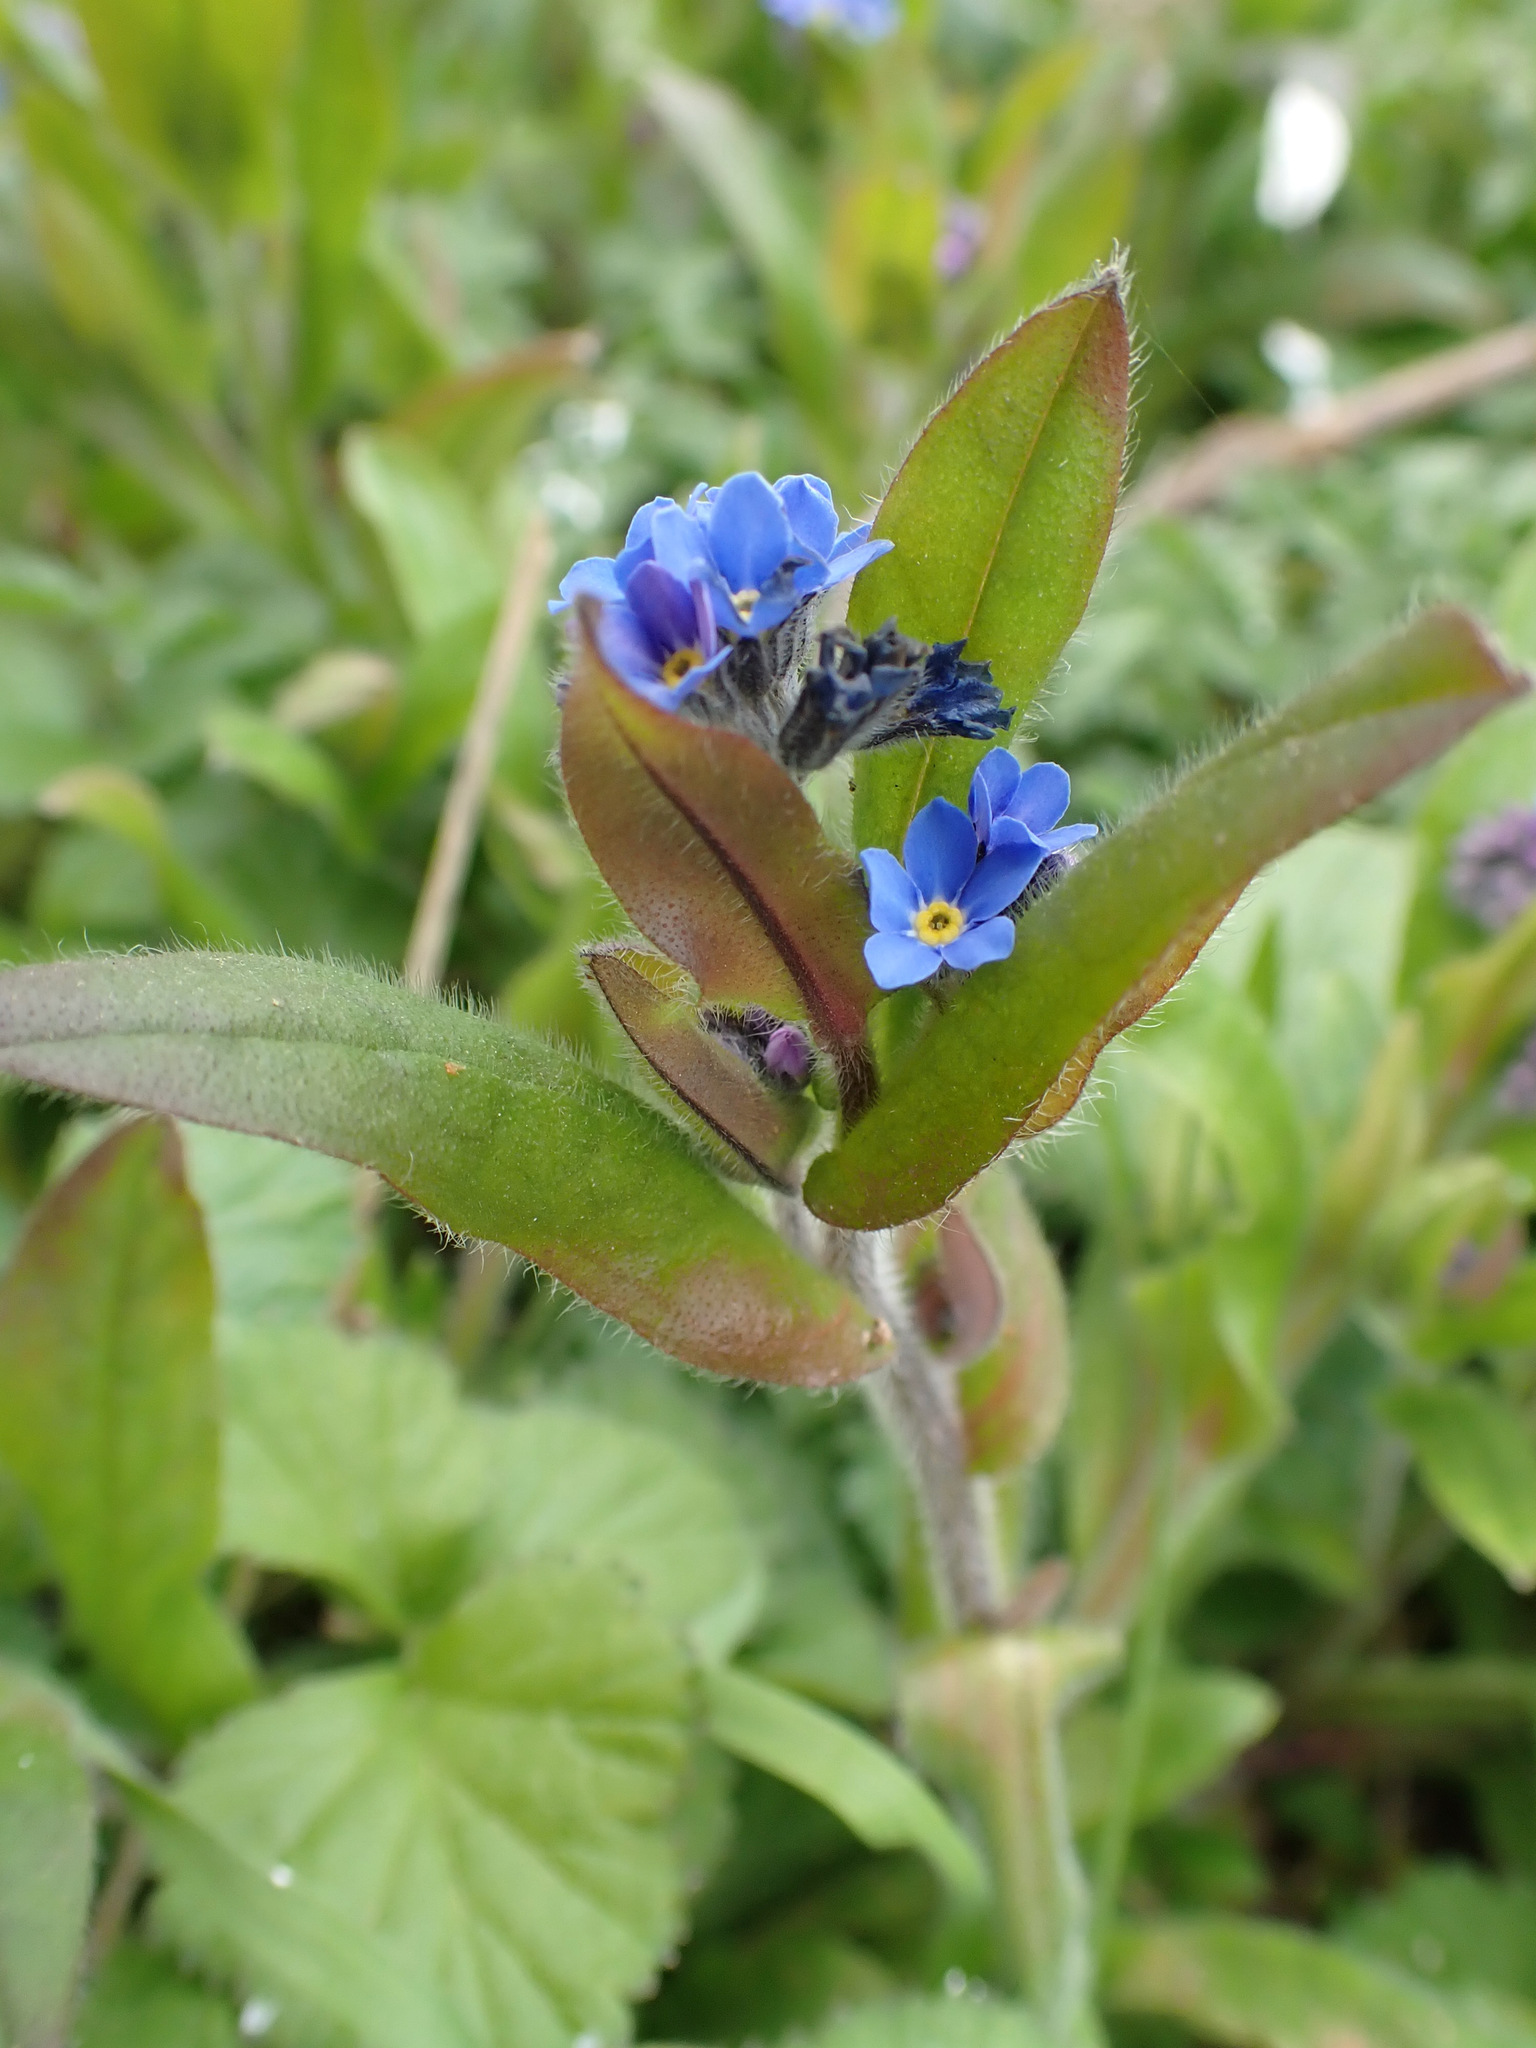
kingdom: Plantae
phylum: Tracheophyta
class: Magnoliopsida
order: Boraginales
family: Boraginaceae
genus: Myosotis
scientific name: Myosotis sylvatica
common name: Wood forget-me-not
